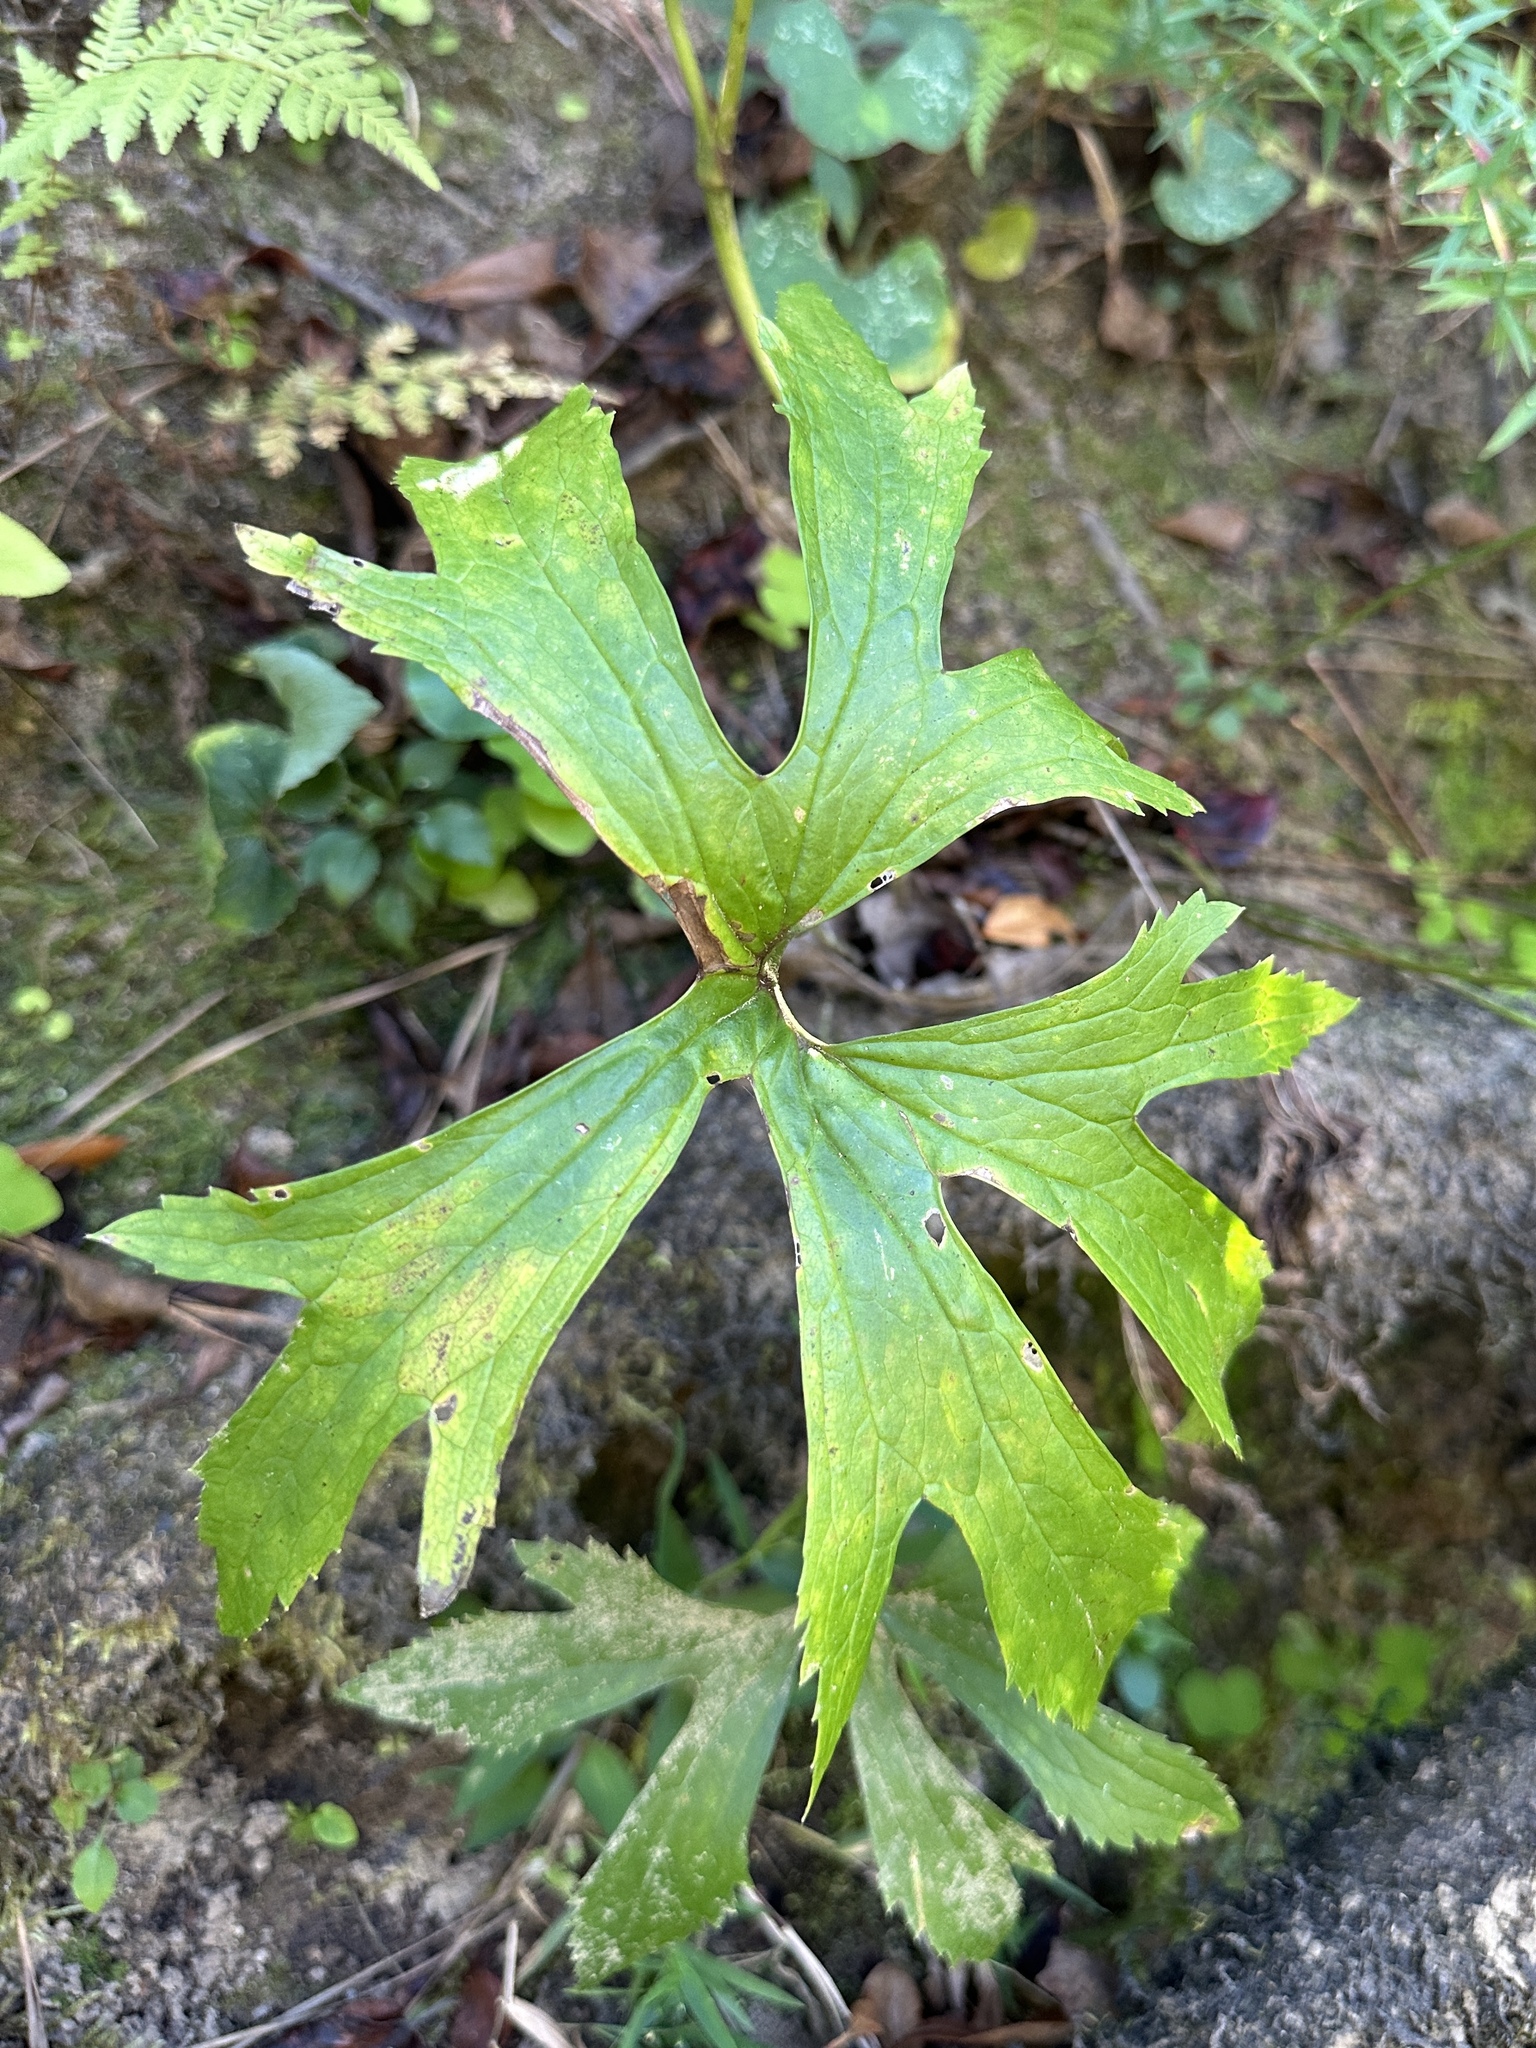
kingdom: Plantae
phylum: Tracheophyta
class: Magnoliopsida
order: Ranunculales
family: Ranunculaceae
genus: Trautvetteria
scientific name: Trautvetteria carolinensis
